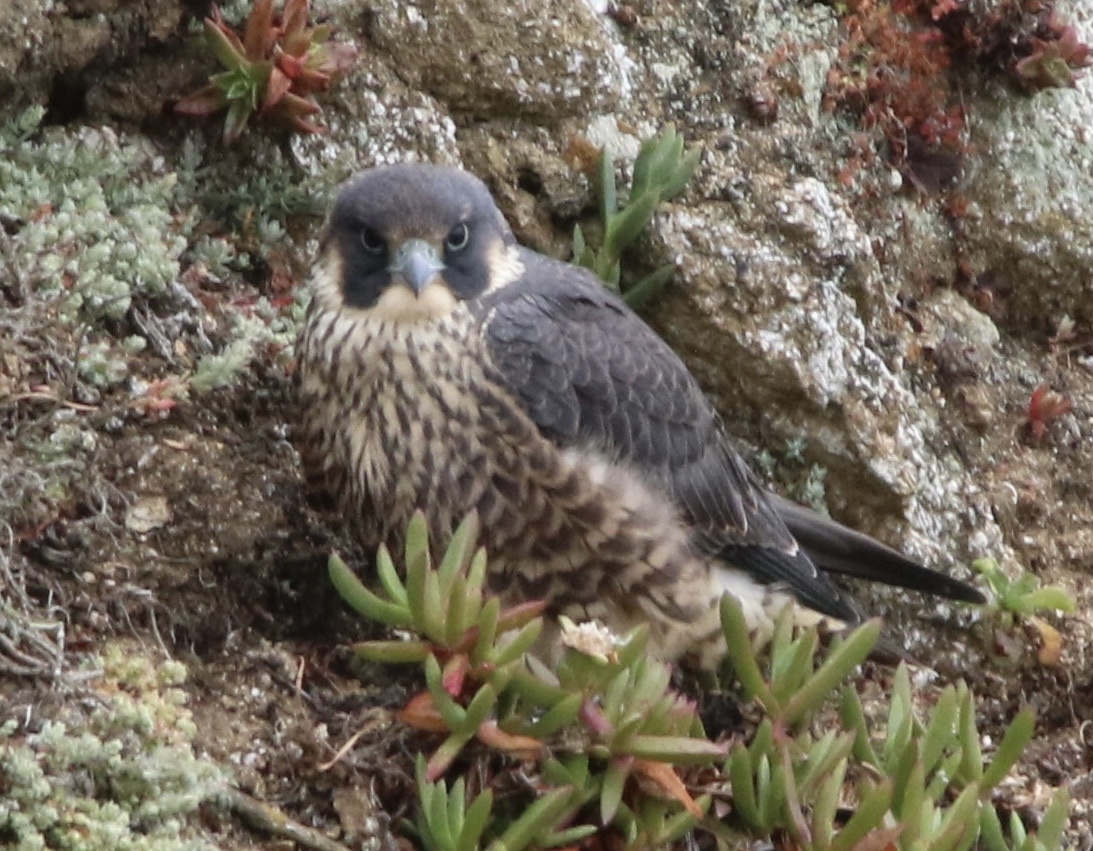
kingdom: Animalia
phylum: Chordata
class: Aves
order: Falconiformes
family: Falconidae
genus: Falco
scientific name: Falco peregrinus
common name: Peregrine falcon
